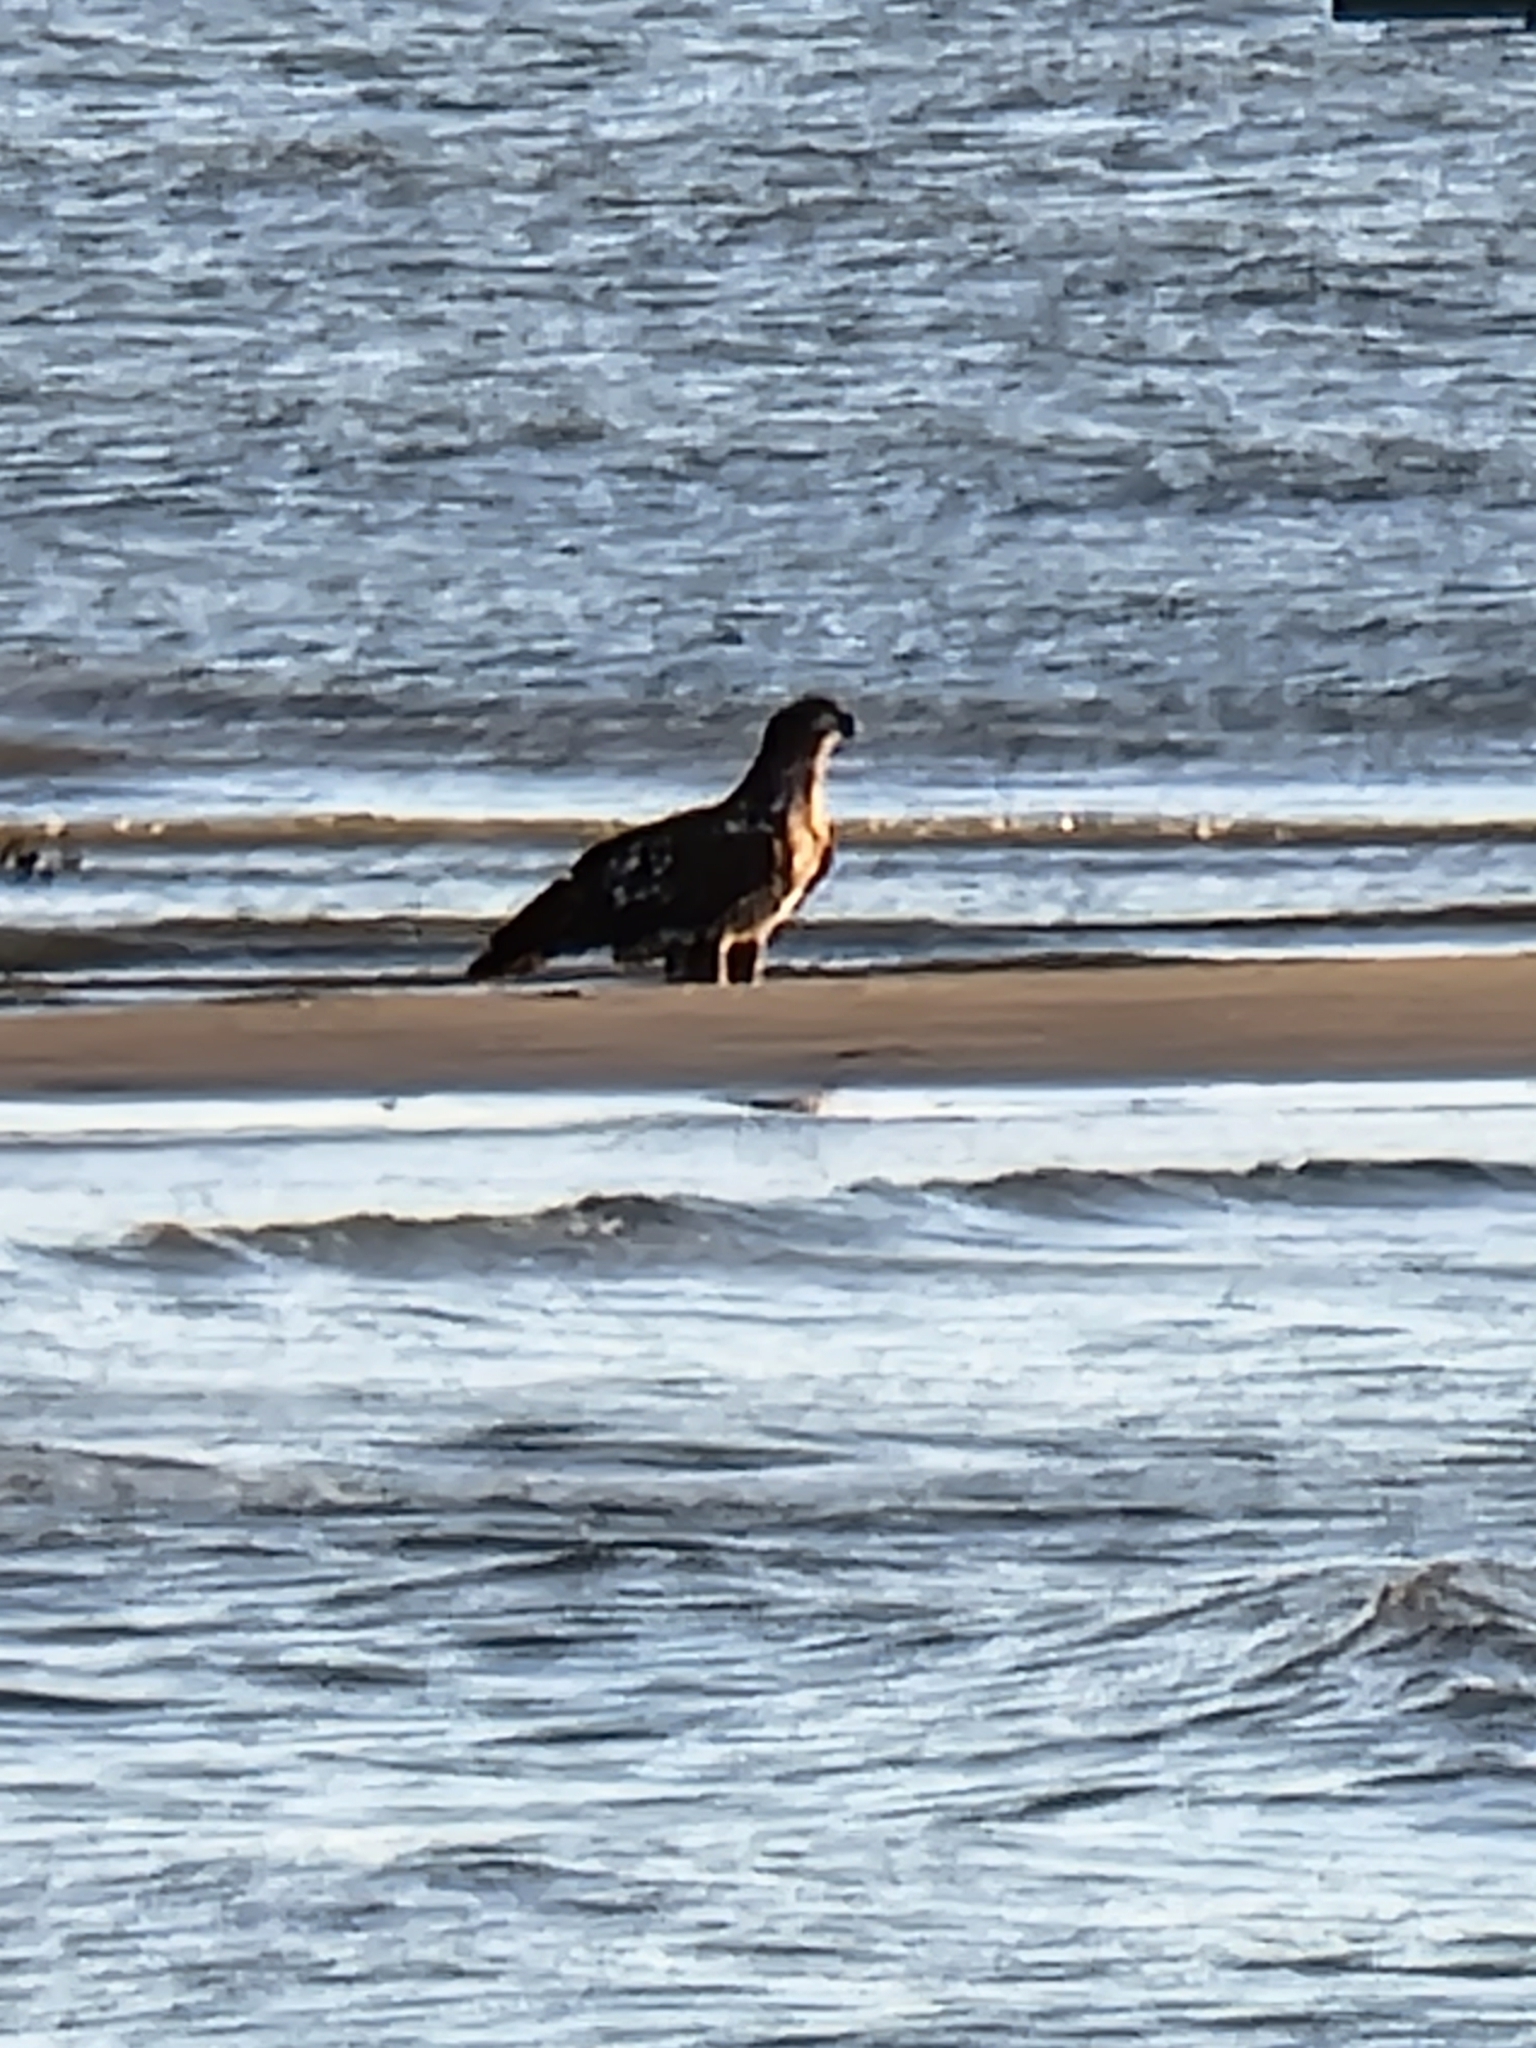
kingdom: Animalia
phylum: Chordata
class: Aves
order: Accipitriformes
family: Accipitridae
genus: Haliaeetus
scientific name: Haliaeetus leucocephalus
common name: Bald eagle
